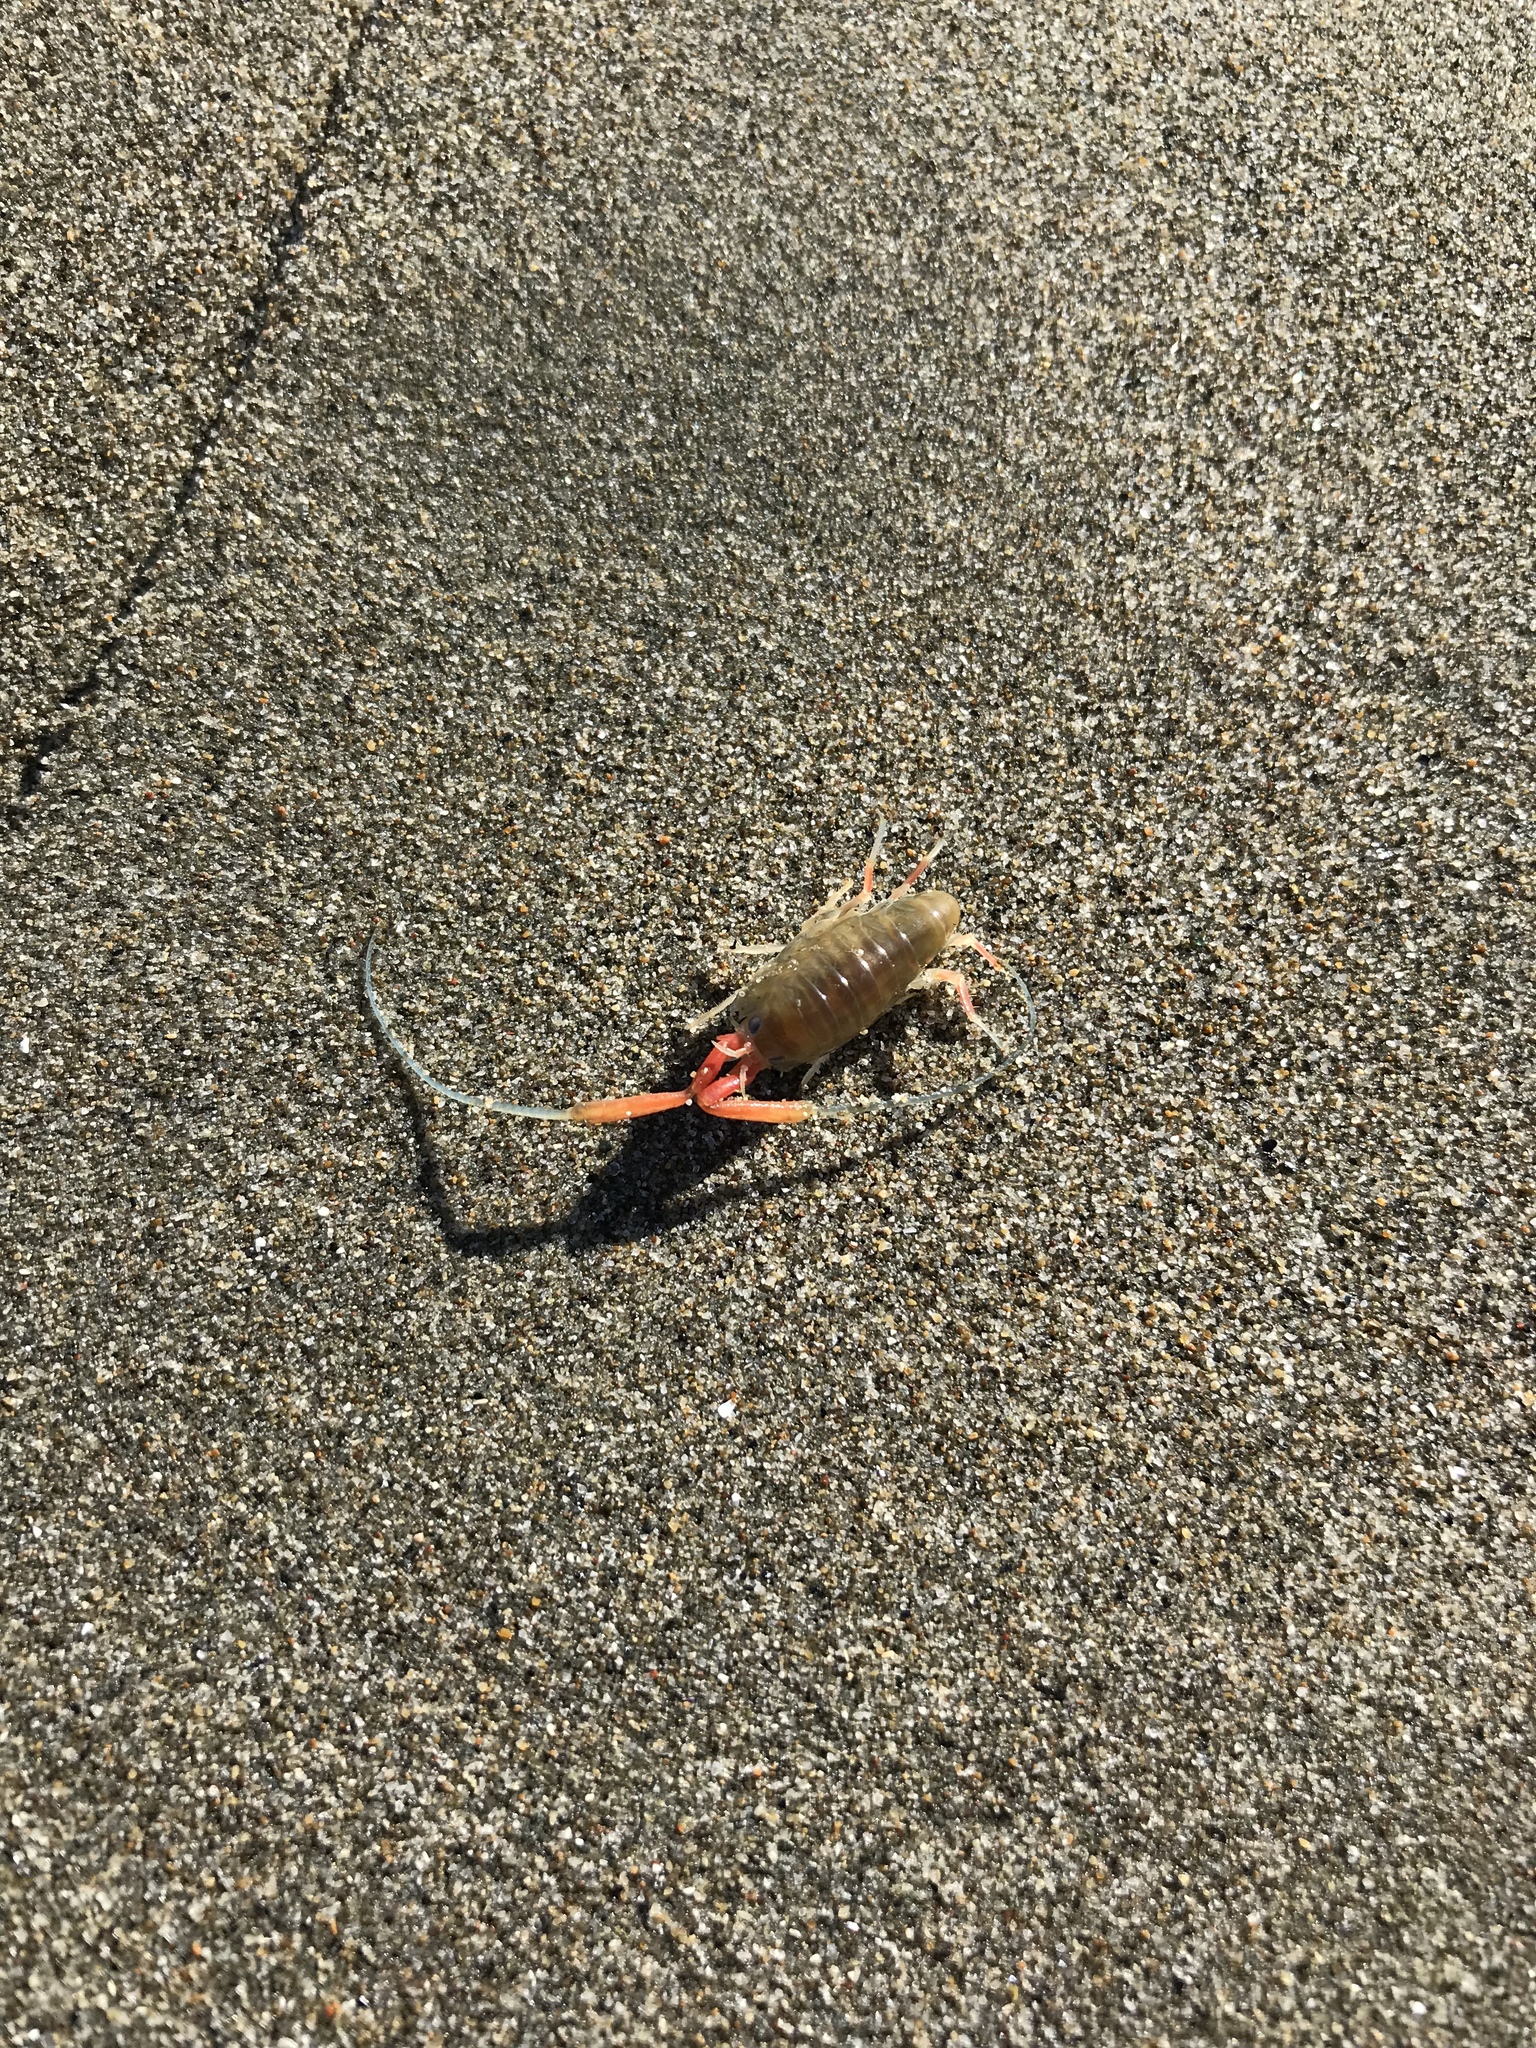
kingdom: Animalia
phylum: Arthropoda
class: Malacostraca
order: Amphipoda
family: Talitridae
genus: Megalorchestia
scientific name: Megalorchestia californiana
